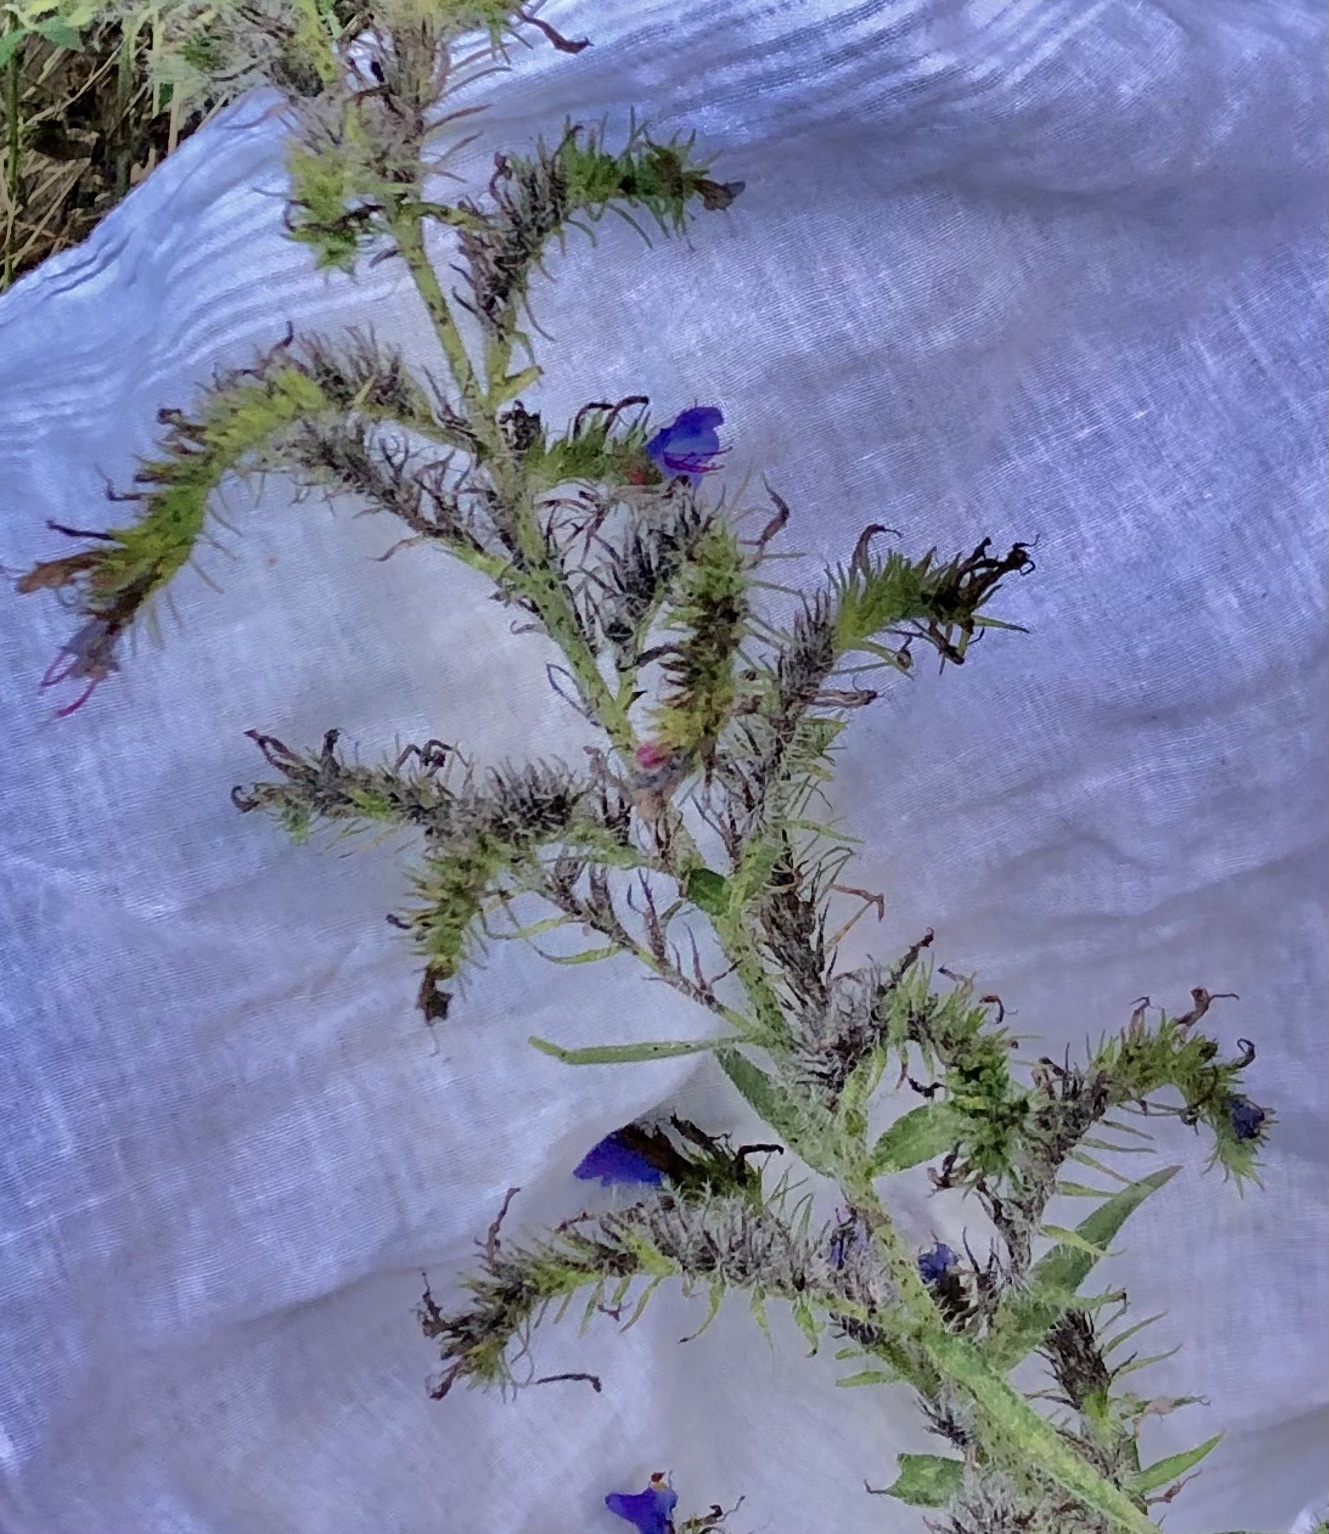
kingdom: Plantae
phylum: Tracheophyta
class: Magnoliopsida
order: Boraginales
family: Boraginaceae
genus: Echium
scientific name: Echium vulgare
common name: Common viper's bugloss
